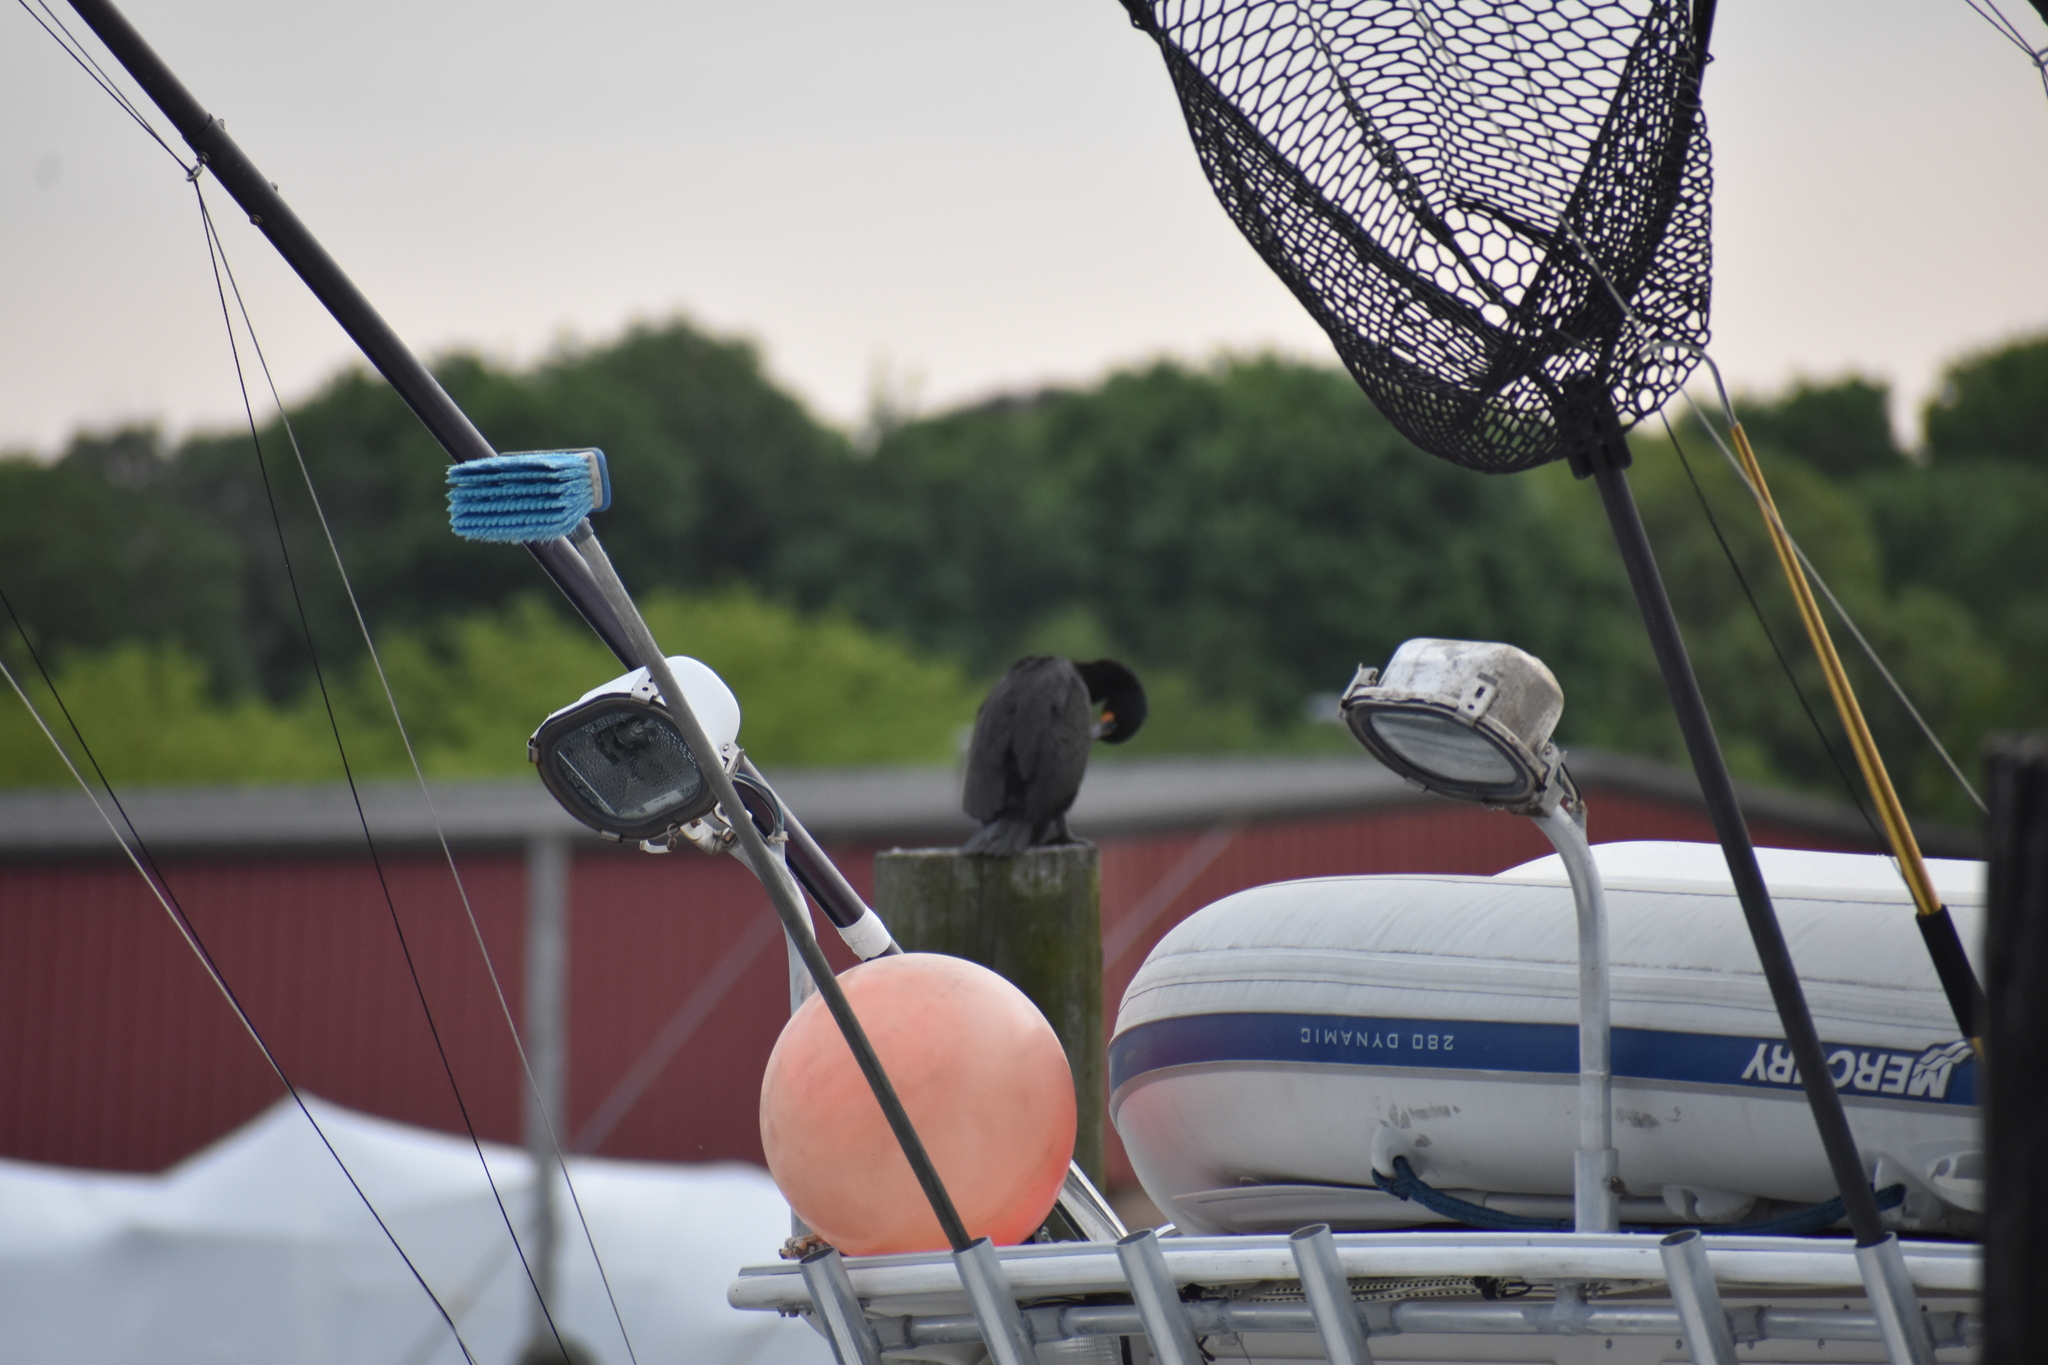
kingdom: Animalia
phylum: Chordata
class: Aves
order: Suliformes
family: Phalacrocoracidae
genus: Phalacrocorax
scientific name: Phalacrocorax auritus
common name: Double-crested cormorant
